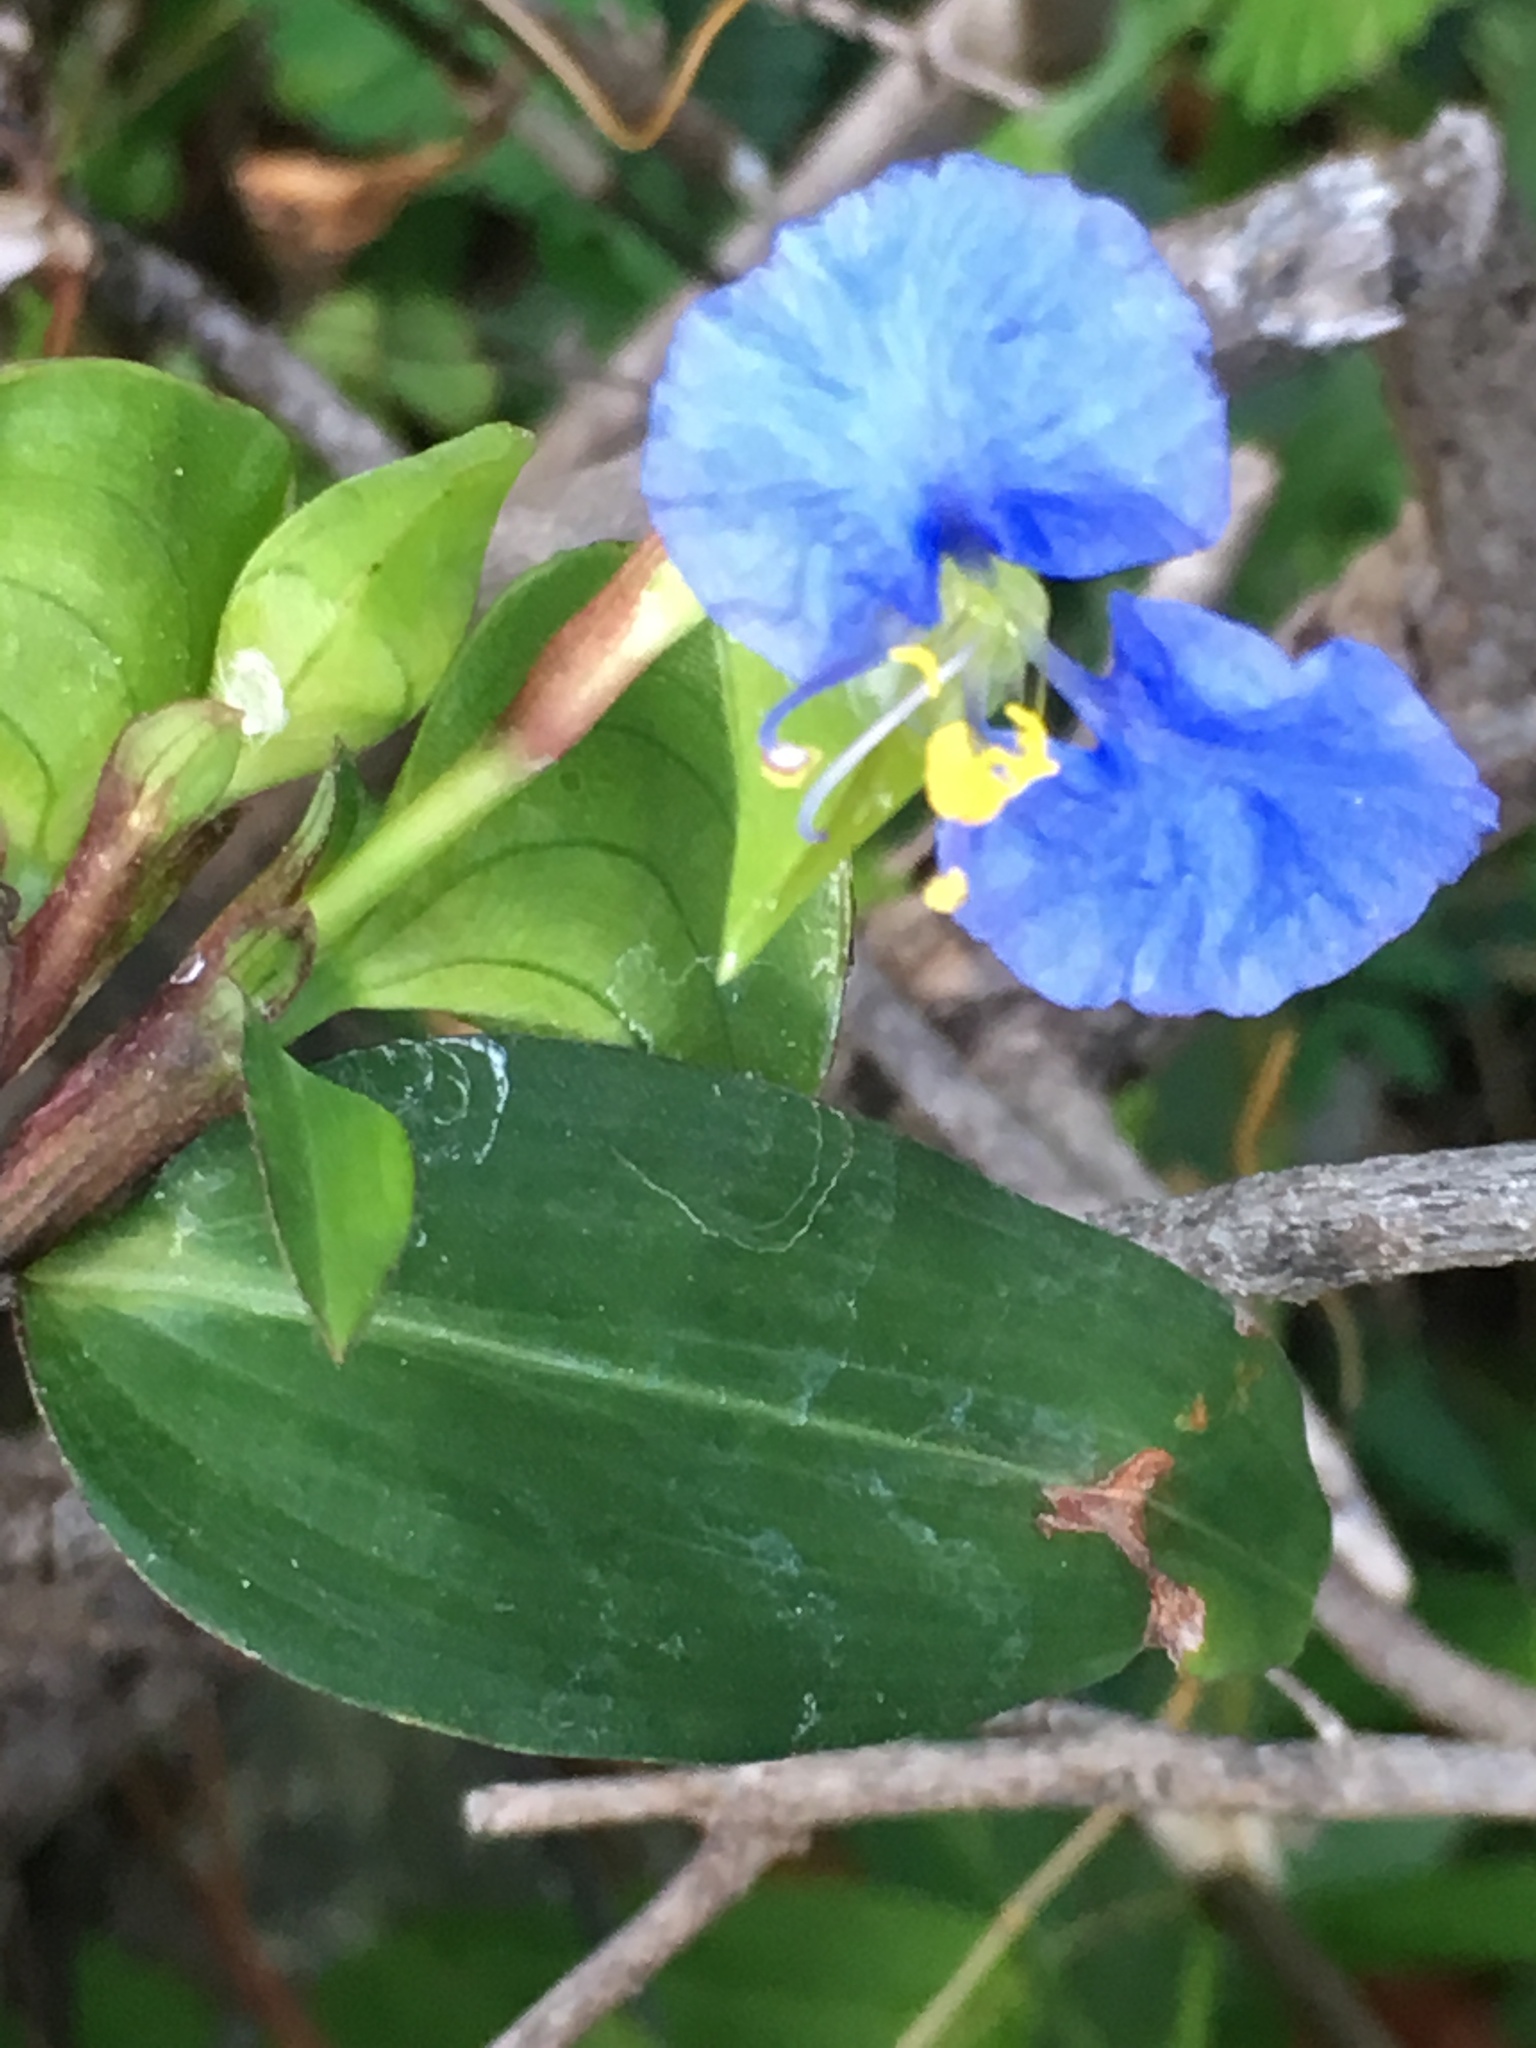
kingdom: Plantae
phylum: Tracheophyta
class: Liliopsida
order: Commelinales
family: Commelinaceae
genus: Commelina
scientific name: Commelina erecta
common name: Blousel blommetjie
